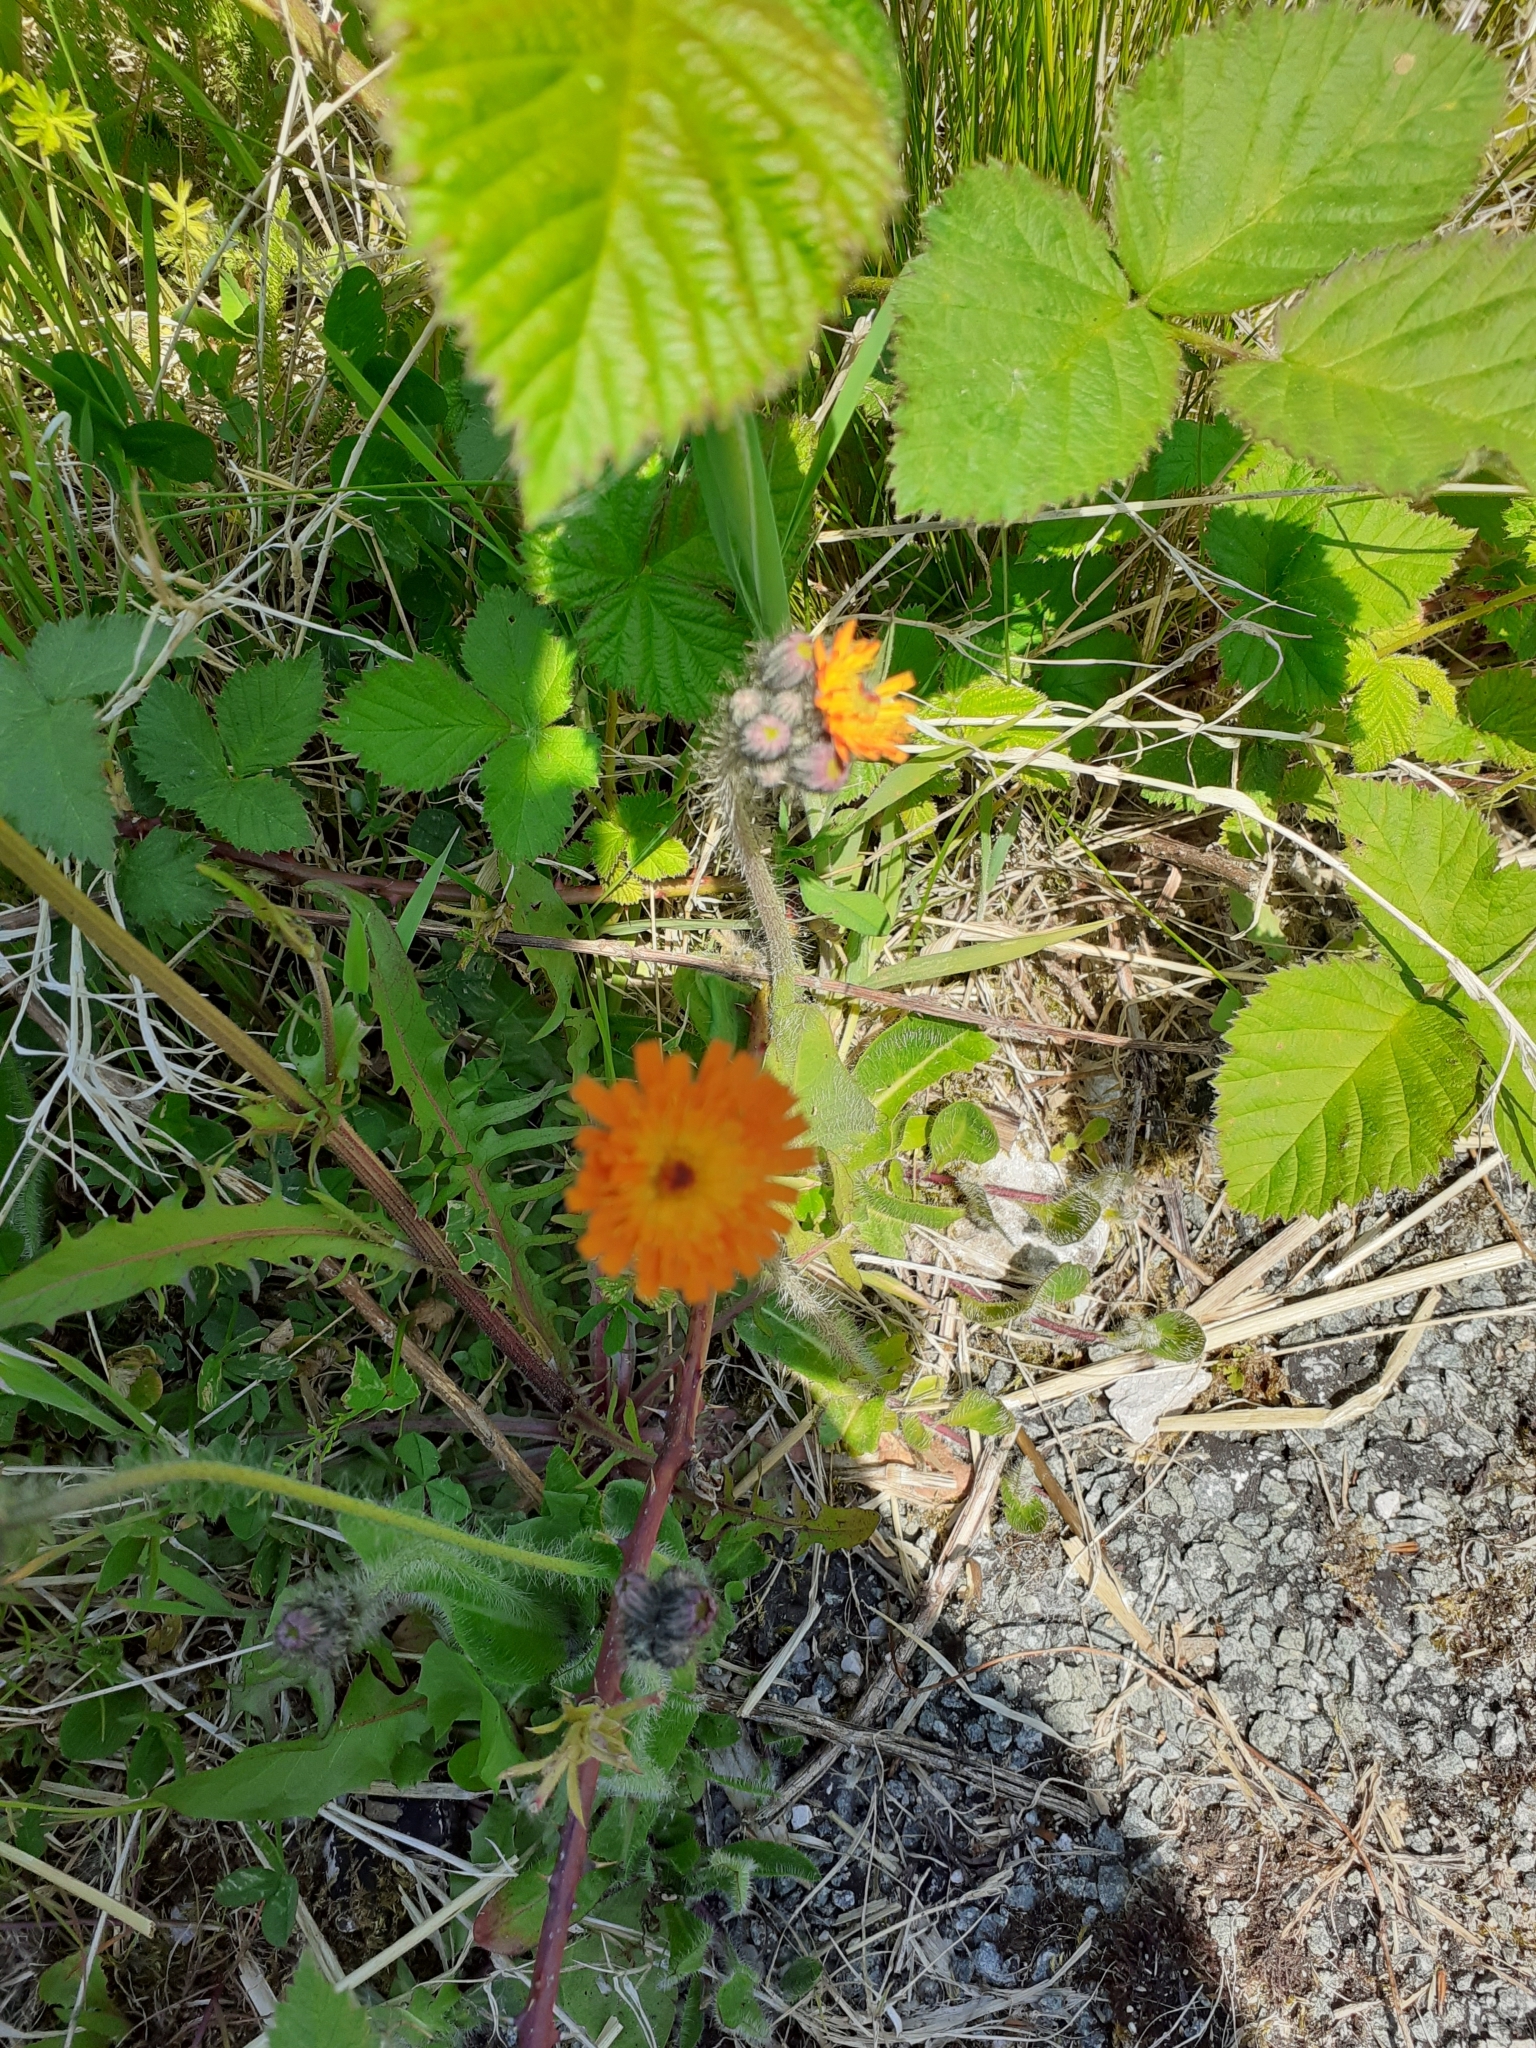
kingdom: Plantae
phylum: Tracheophyta
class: Magnoliopsida
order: Asterales
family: Asteraceae
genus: Pilosella
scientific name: Pilosella aurantiaca
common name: Fox-and-cubs
